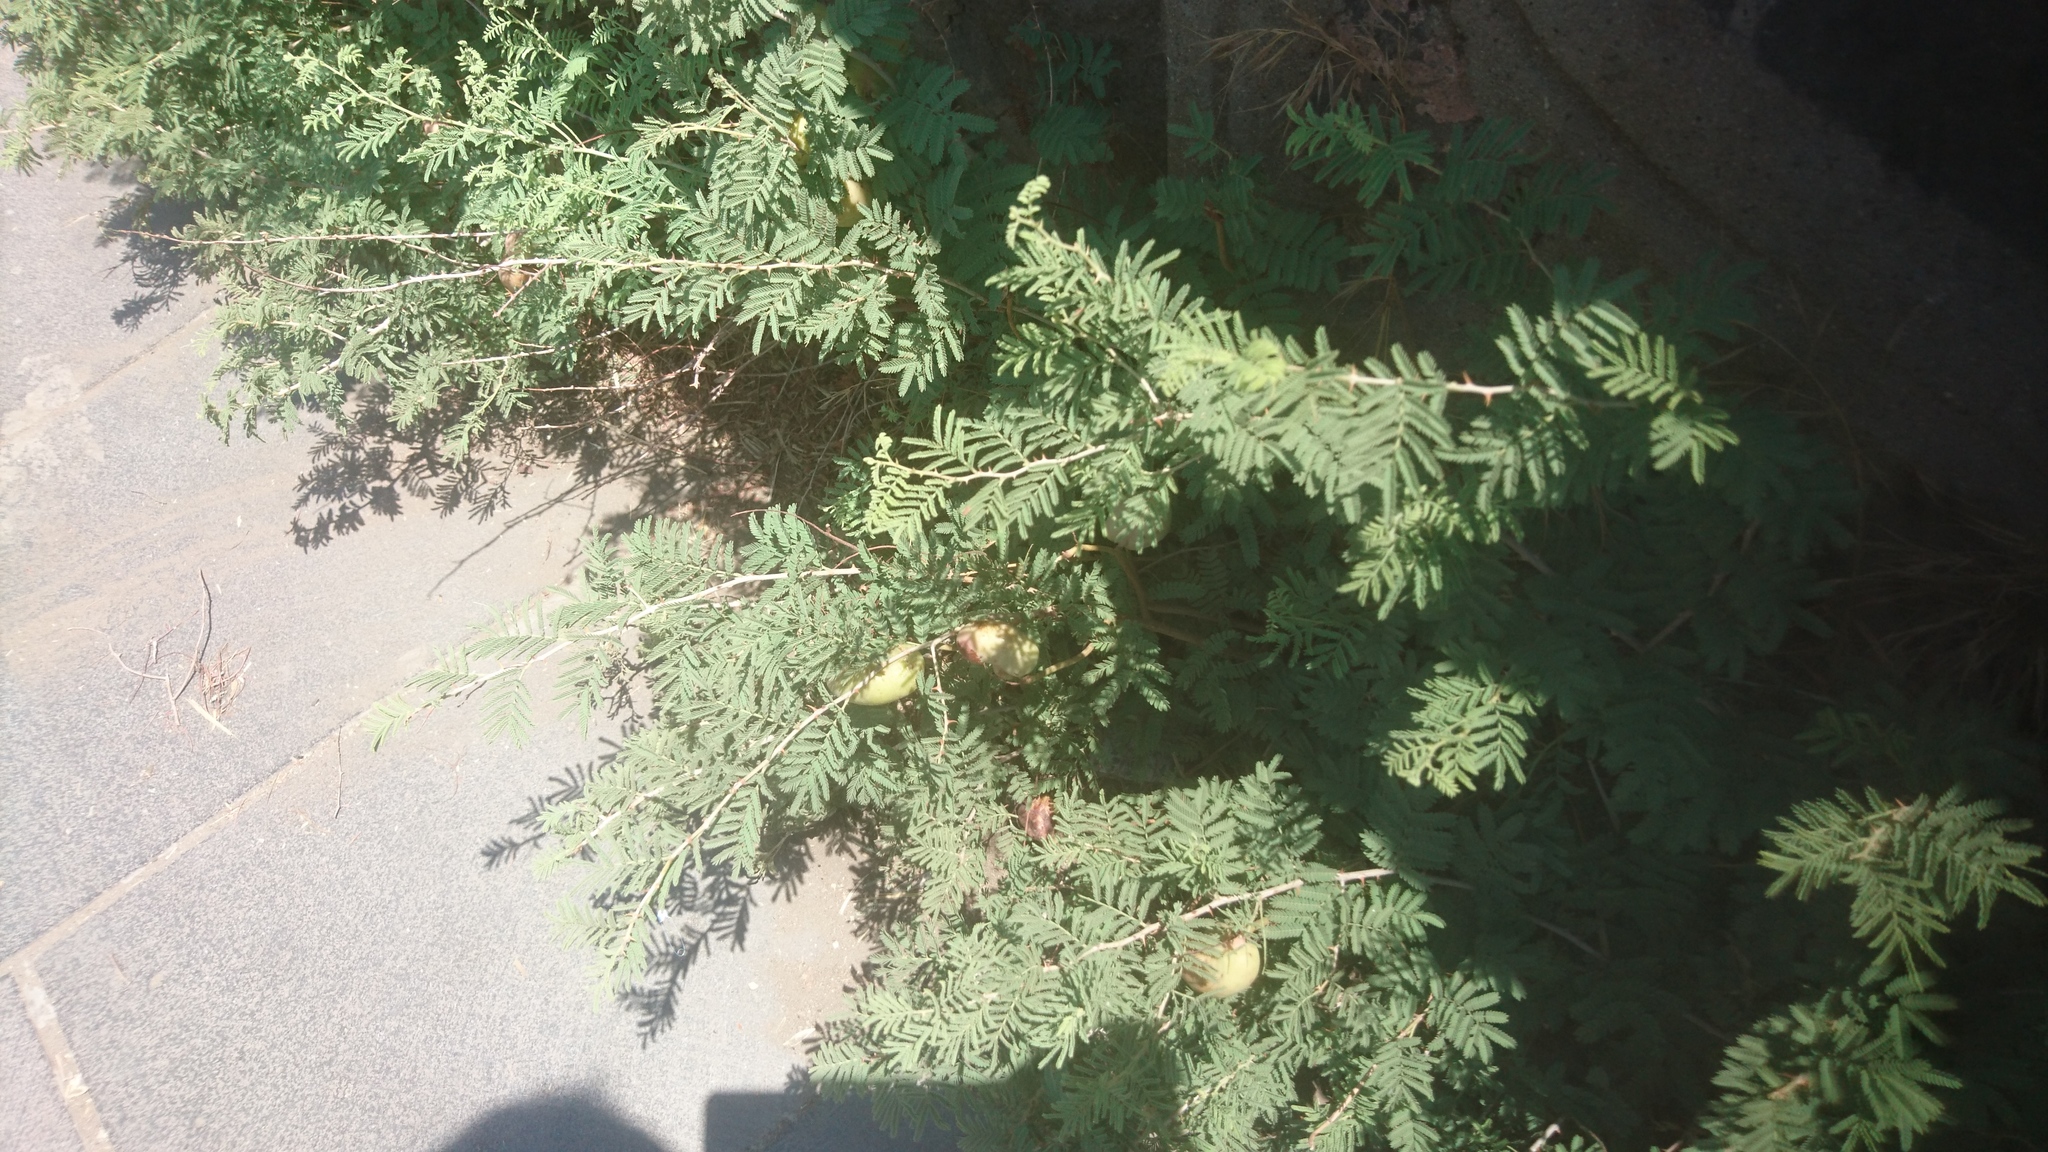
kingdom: Plantae
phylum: Tracheophyta
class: Magnoliopsida
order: Fabales
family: Fabaceae
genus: Prosopis
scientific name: Prosopis farcta
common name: Syrian mesquite
